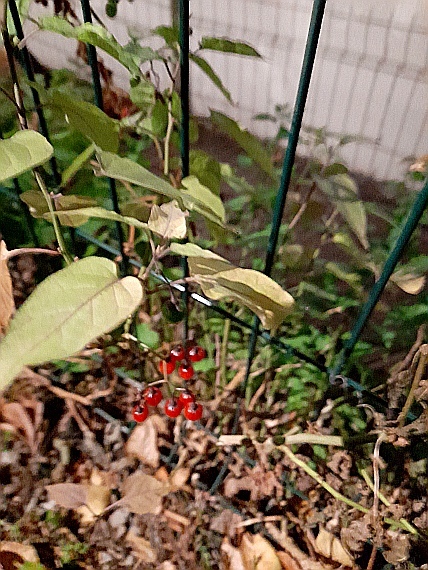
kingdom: Plantae
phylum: Tracheophyta
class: Magnoliopsida
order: Solanales
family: Solanaceae
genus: Solanum
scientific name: Solanum dulcamara
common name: Climbing nightshade
